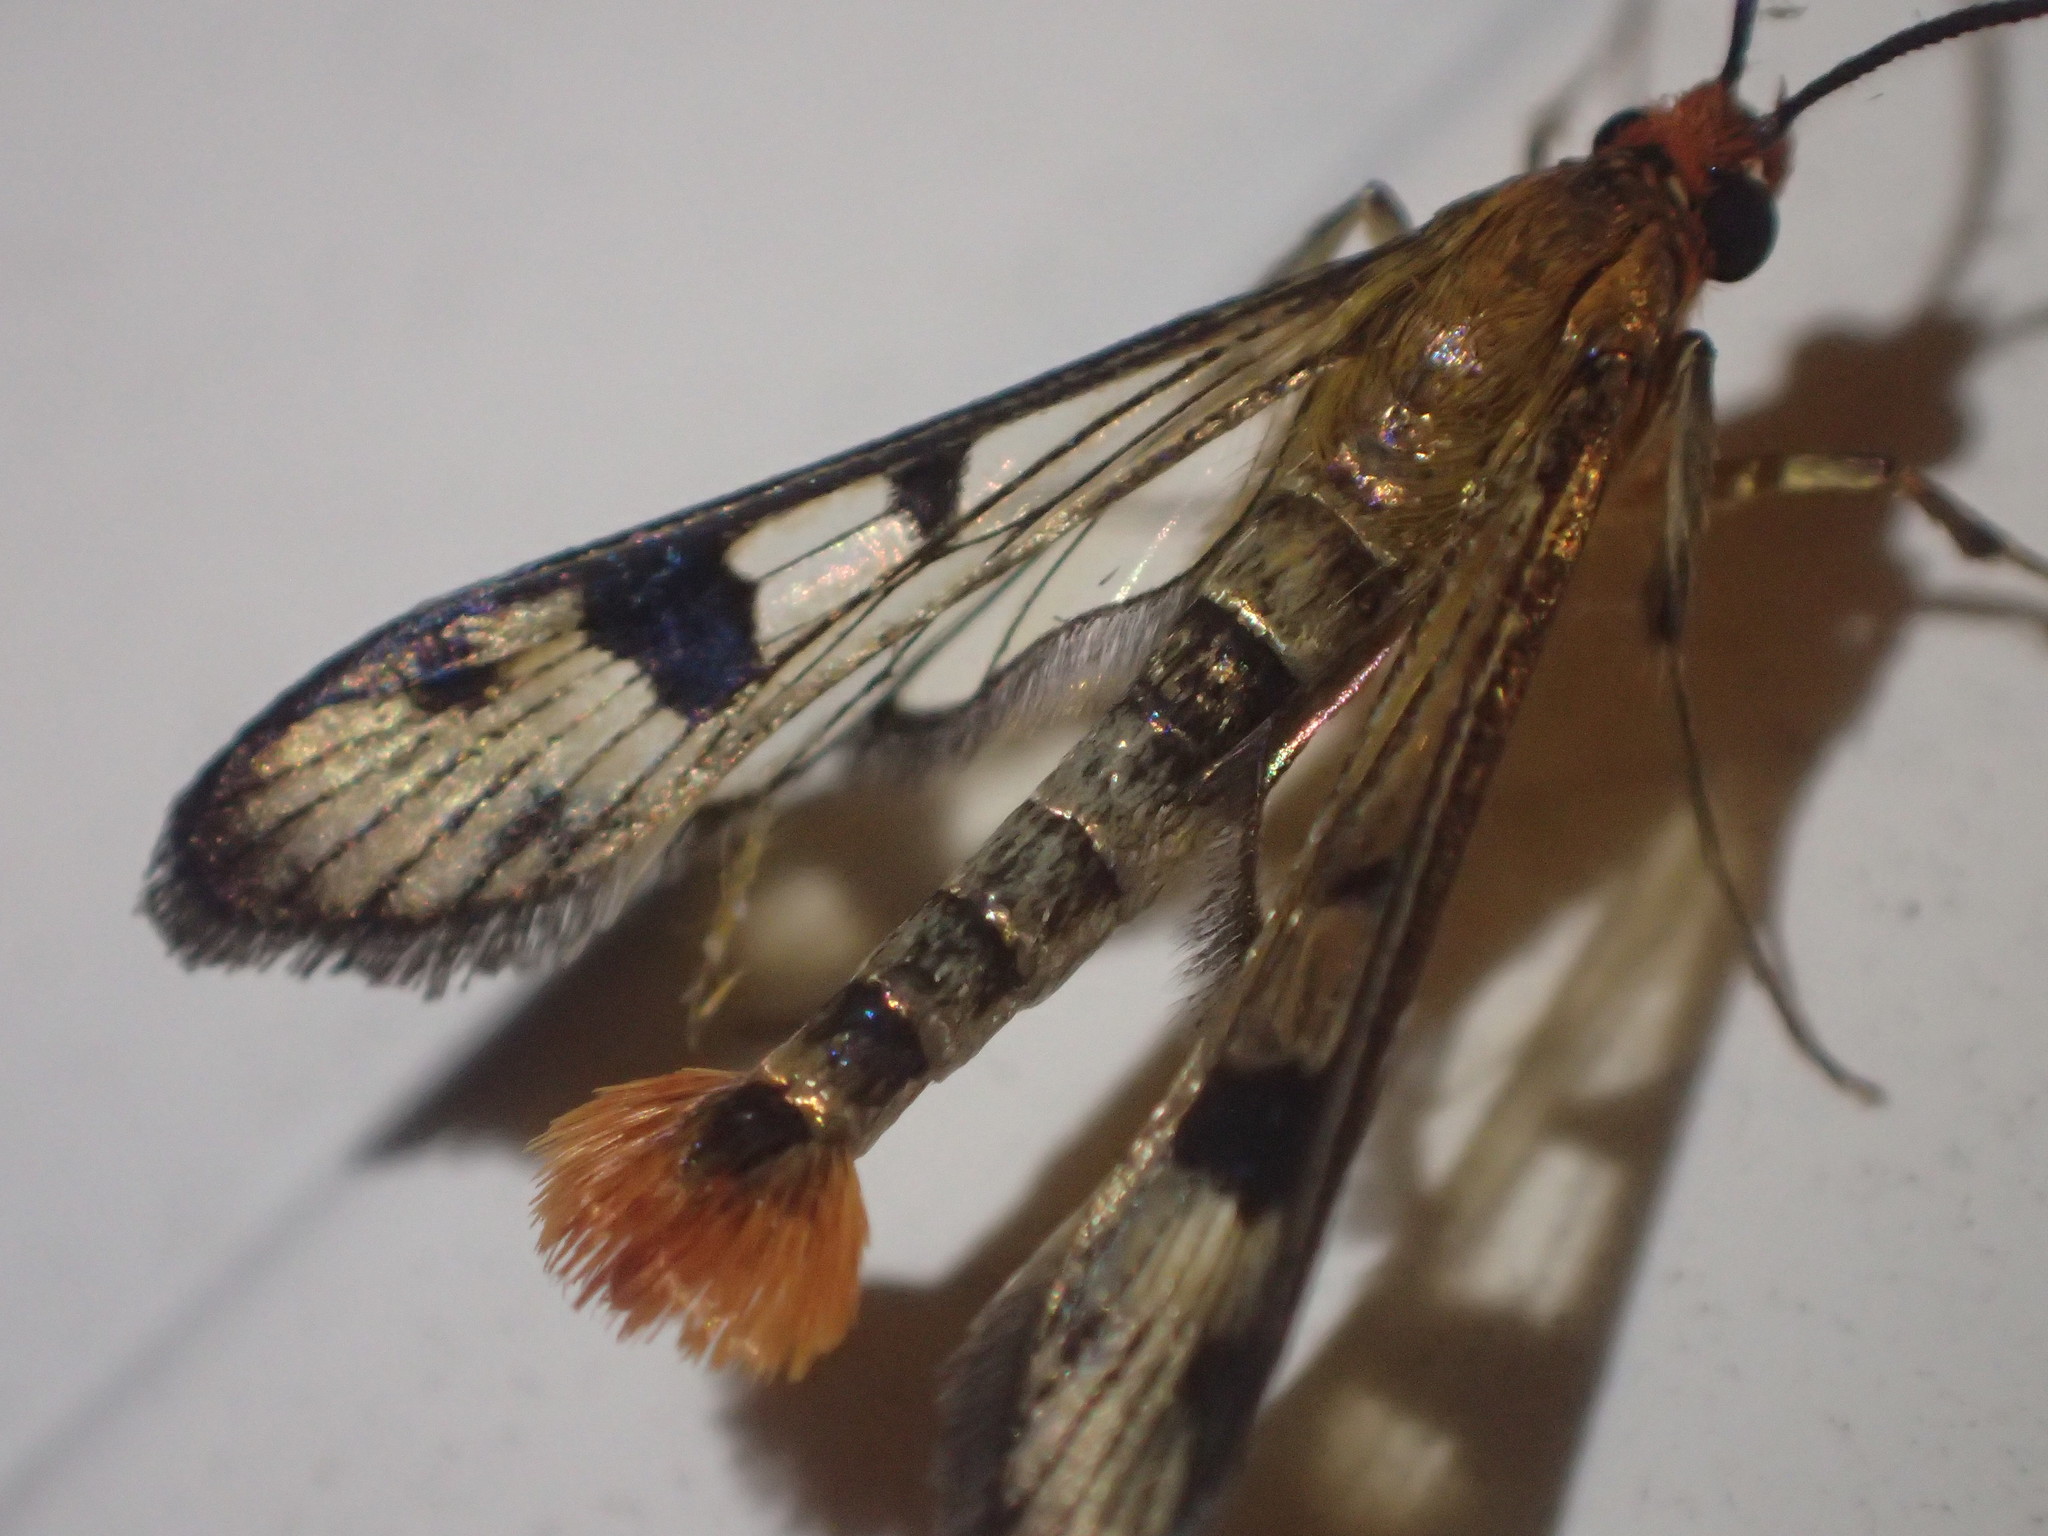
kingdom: Animalia
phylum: Arthropoda
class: Insecta
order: Lepidoptera
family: Sesiidae
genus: Synanthedon
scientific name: Synanthedon acerni
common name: Maple callus borer moth
